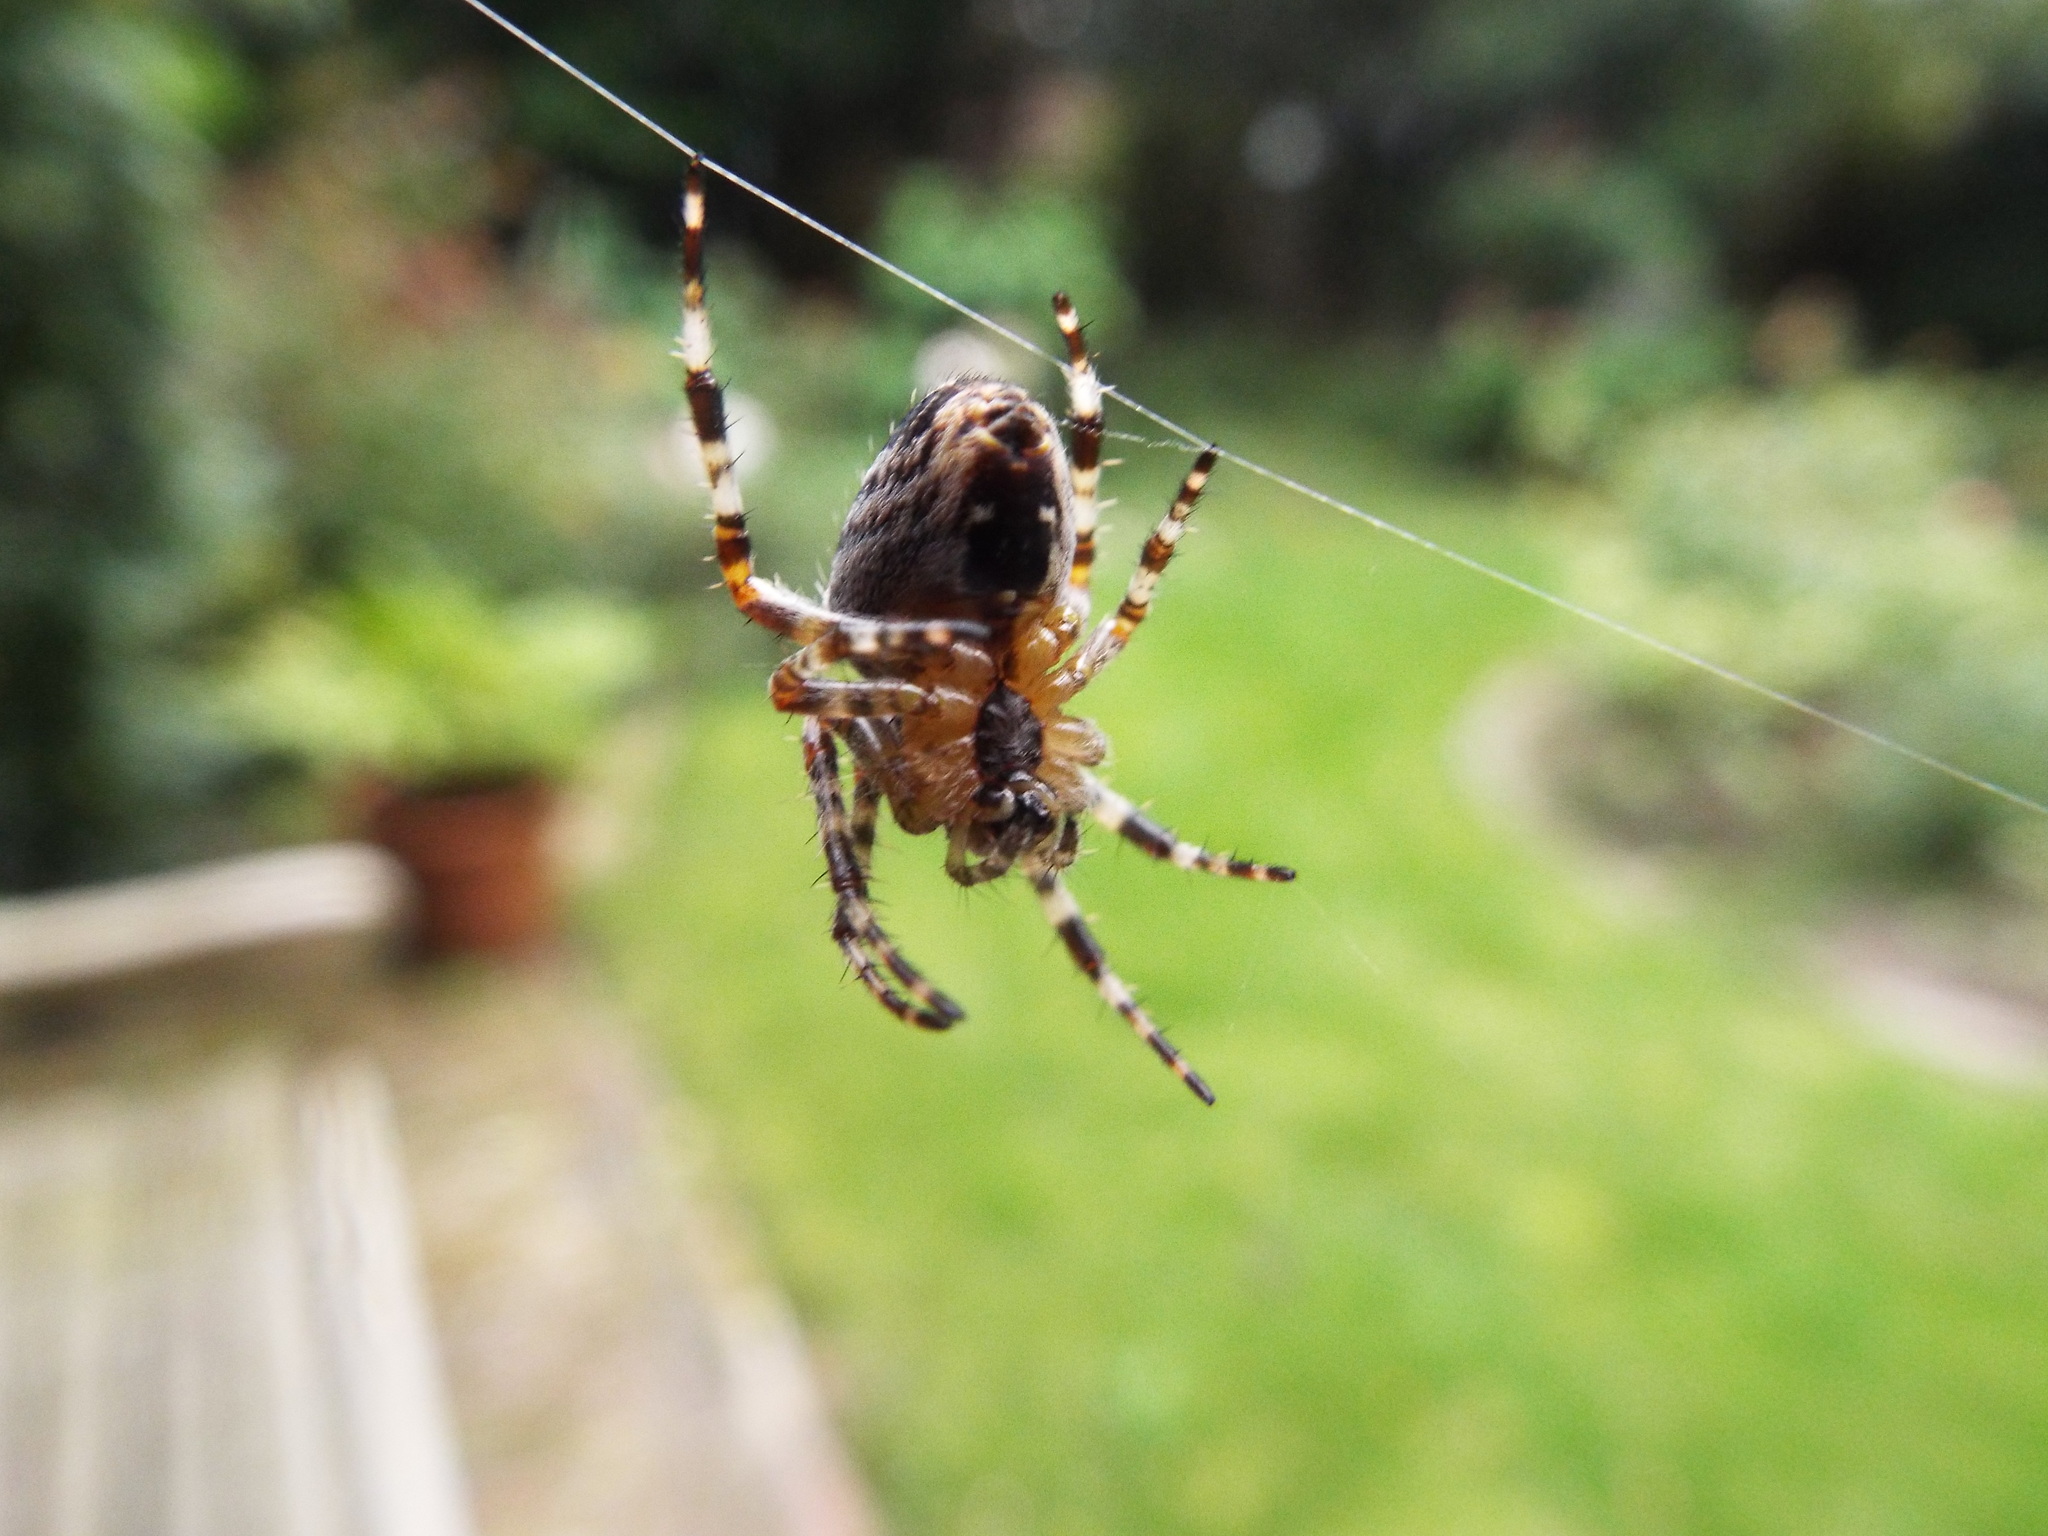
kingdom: Animalia
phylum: Arthropoda
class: Arachnida
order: Araneae
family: Araneidae
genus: Araneus
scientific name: Araneus diadematus
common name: Cross orbweaver
